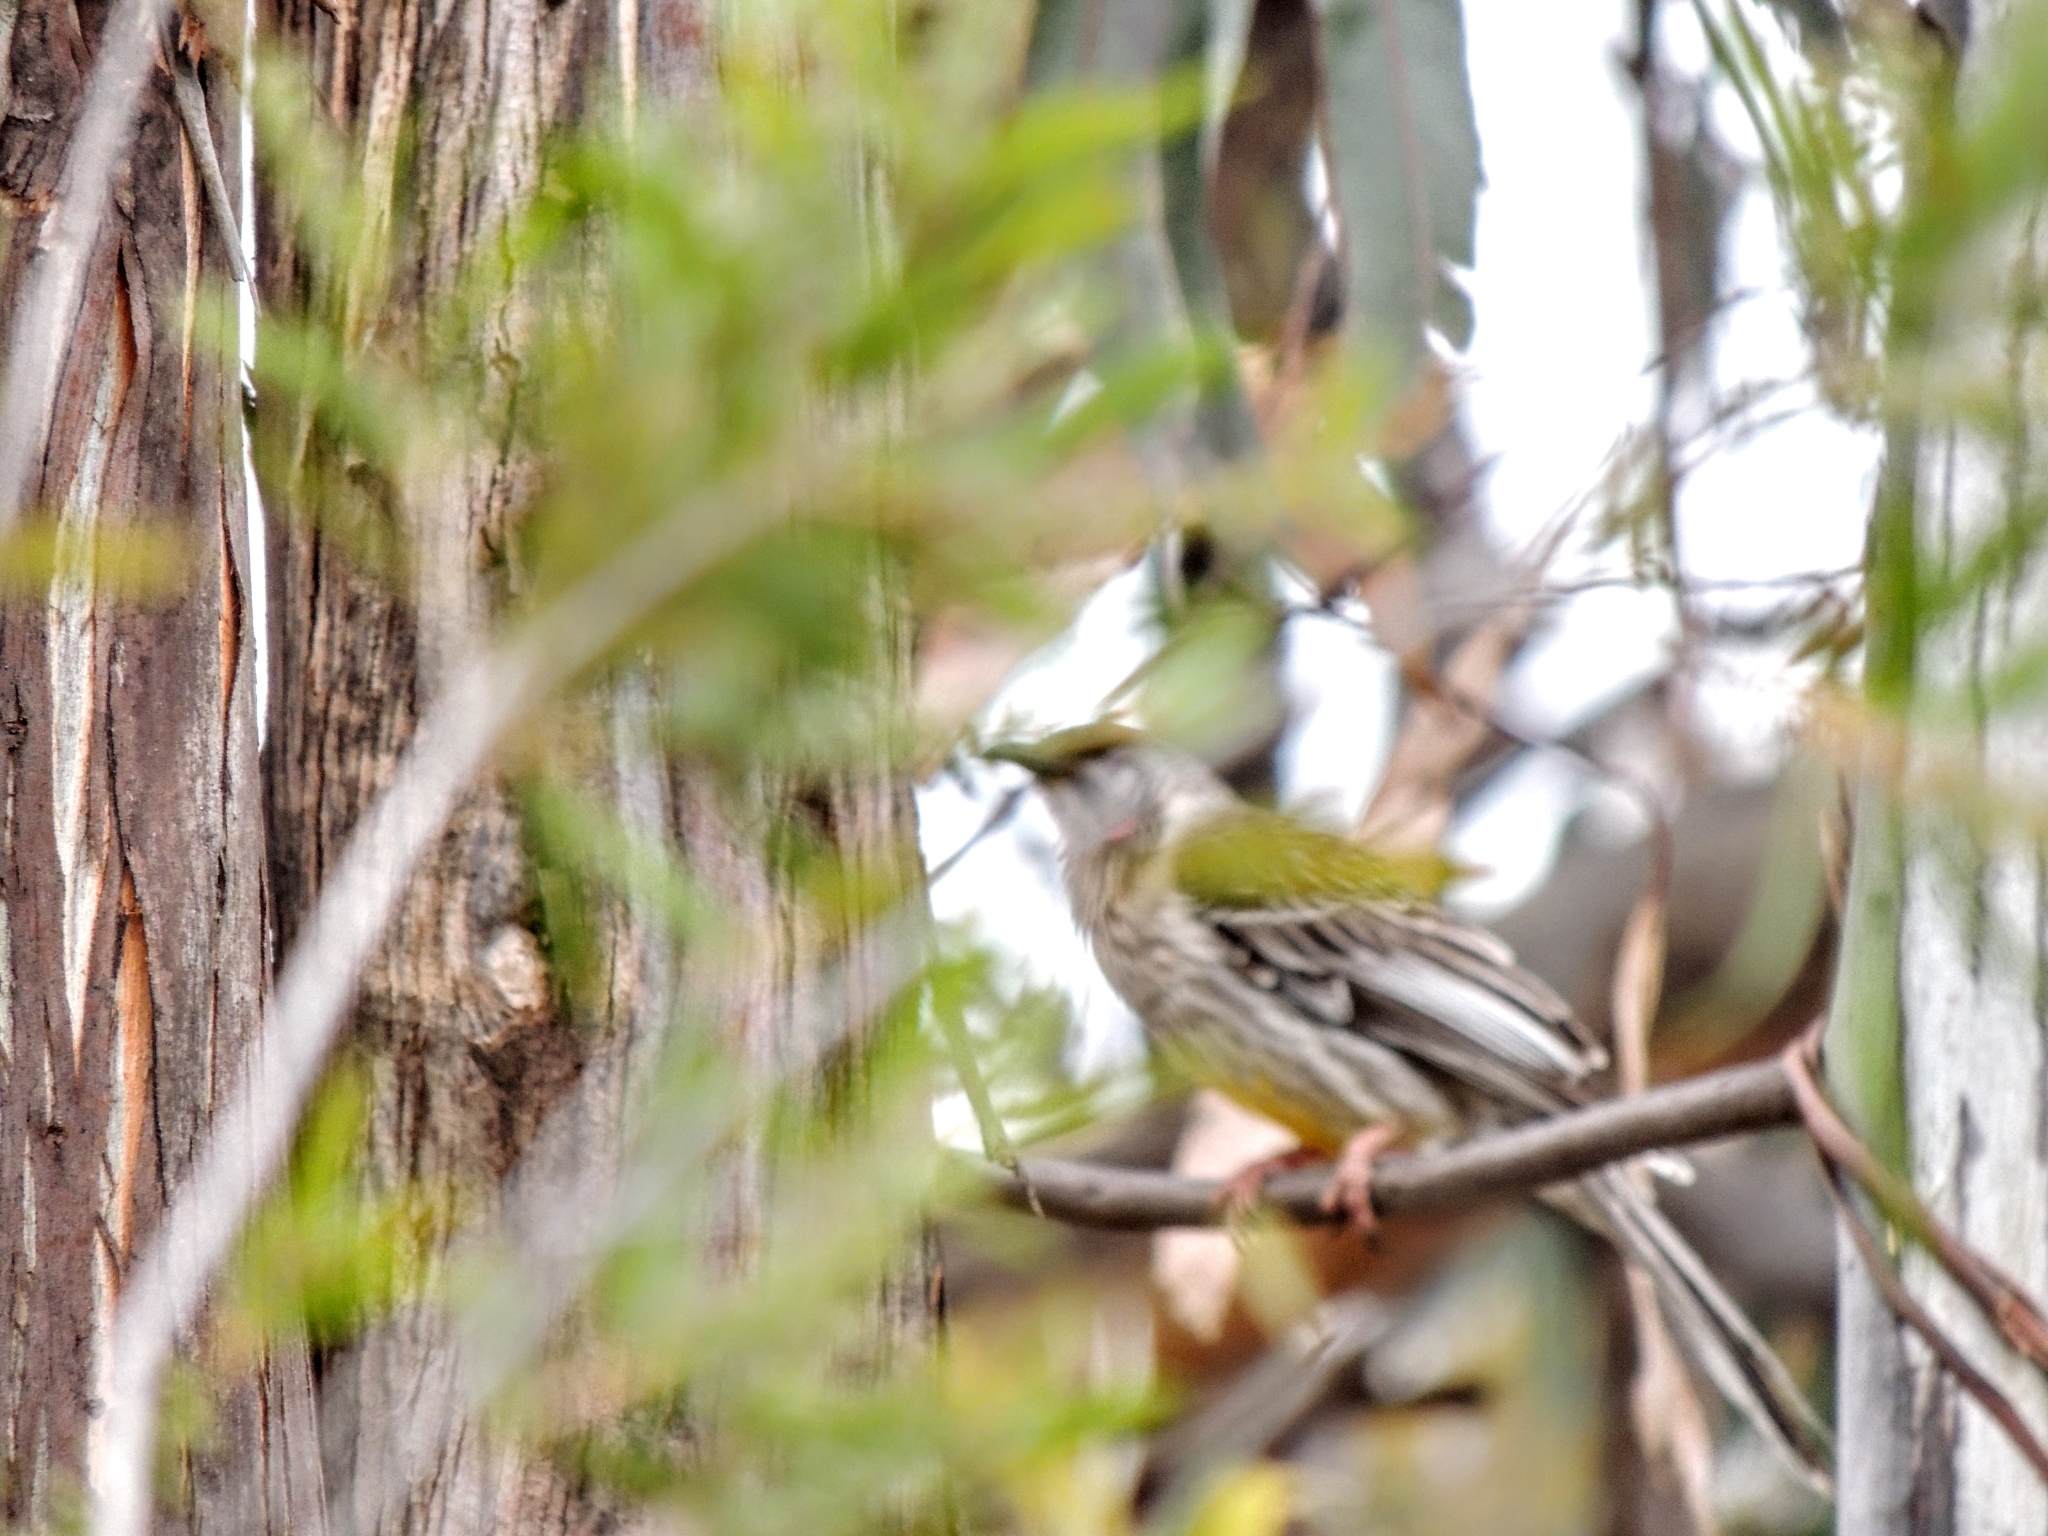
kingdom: Animalia
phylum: Chordata
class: Aves
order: Passeriformes
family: Meliphagidae
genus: Anthochaera
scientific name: Anthochaera carunculata
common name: Red wattlebird
